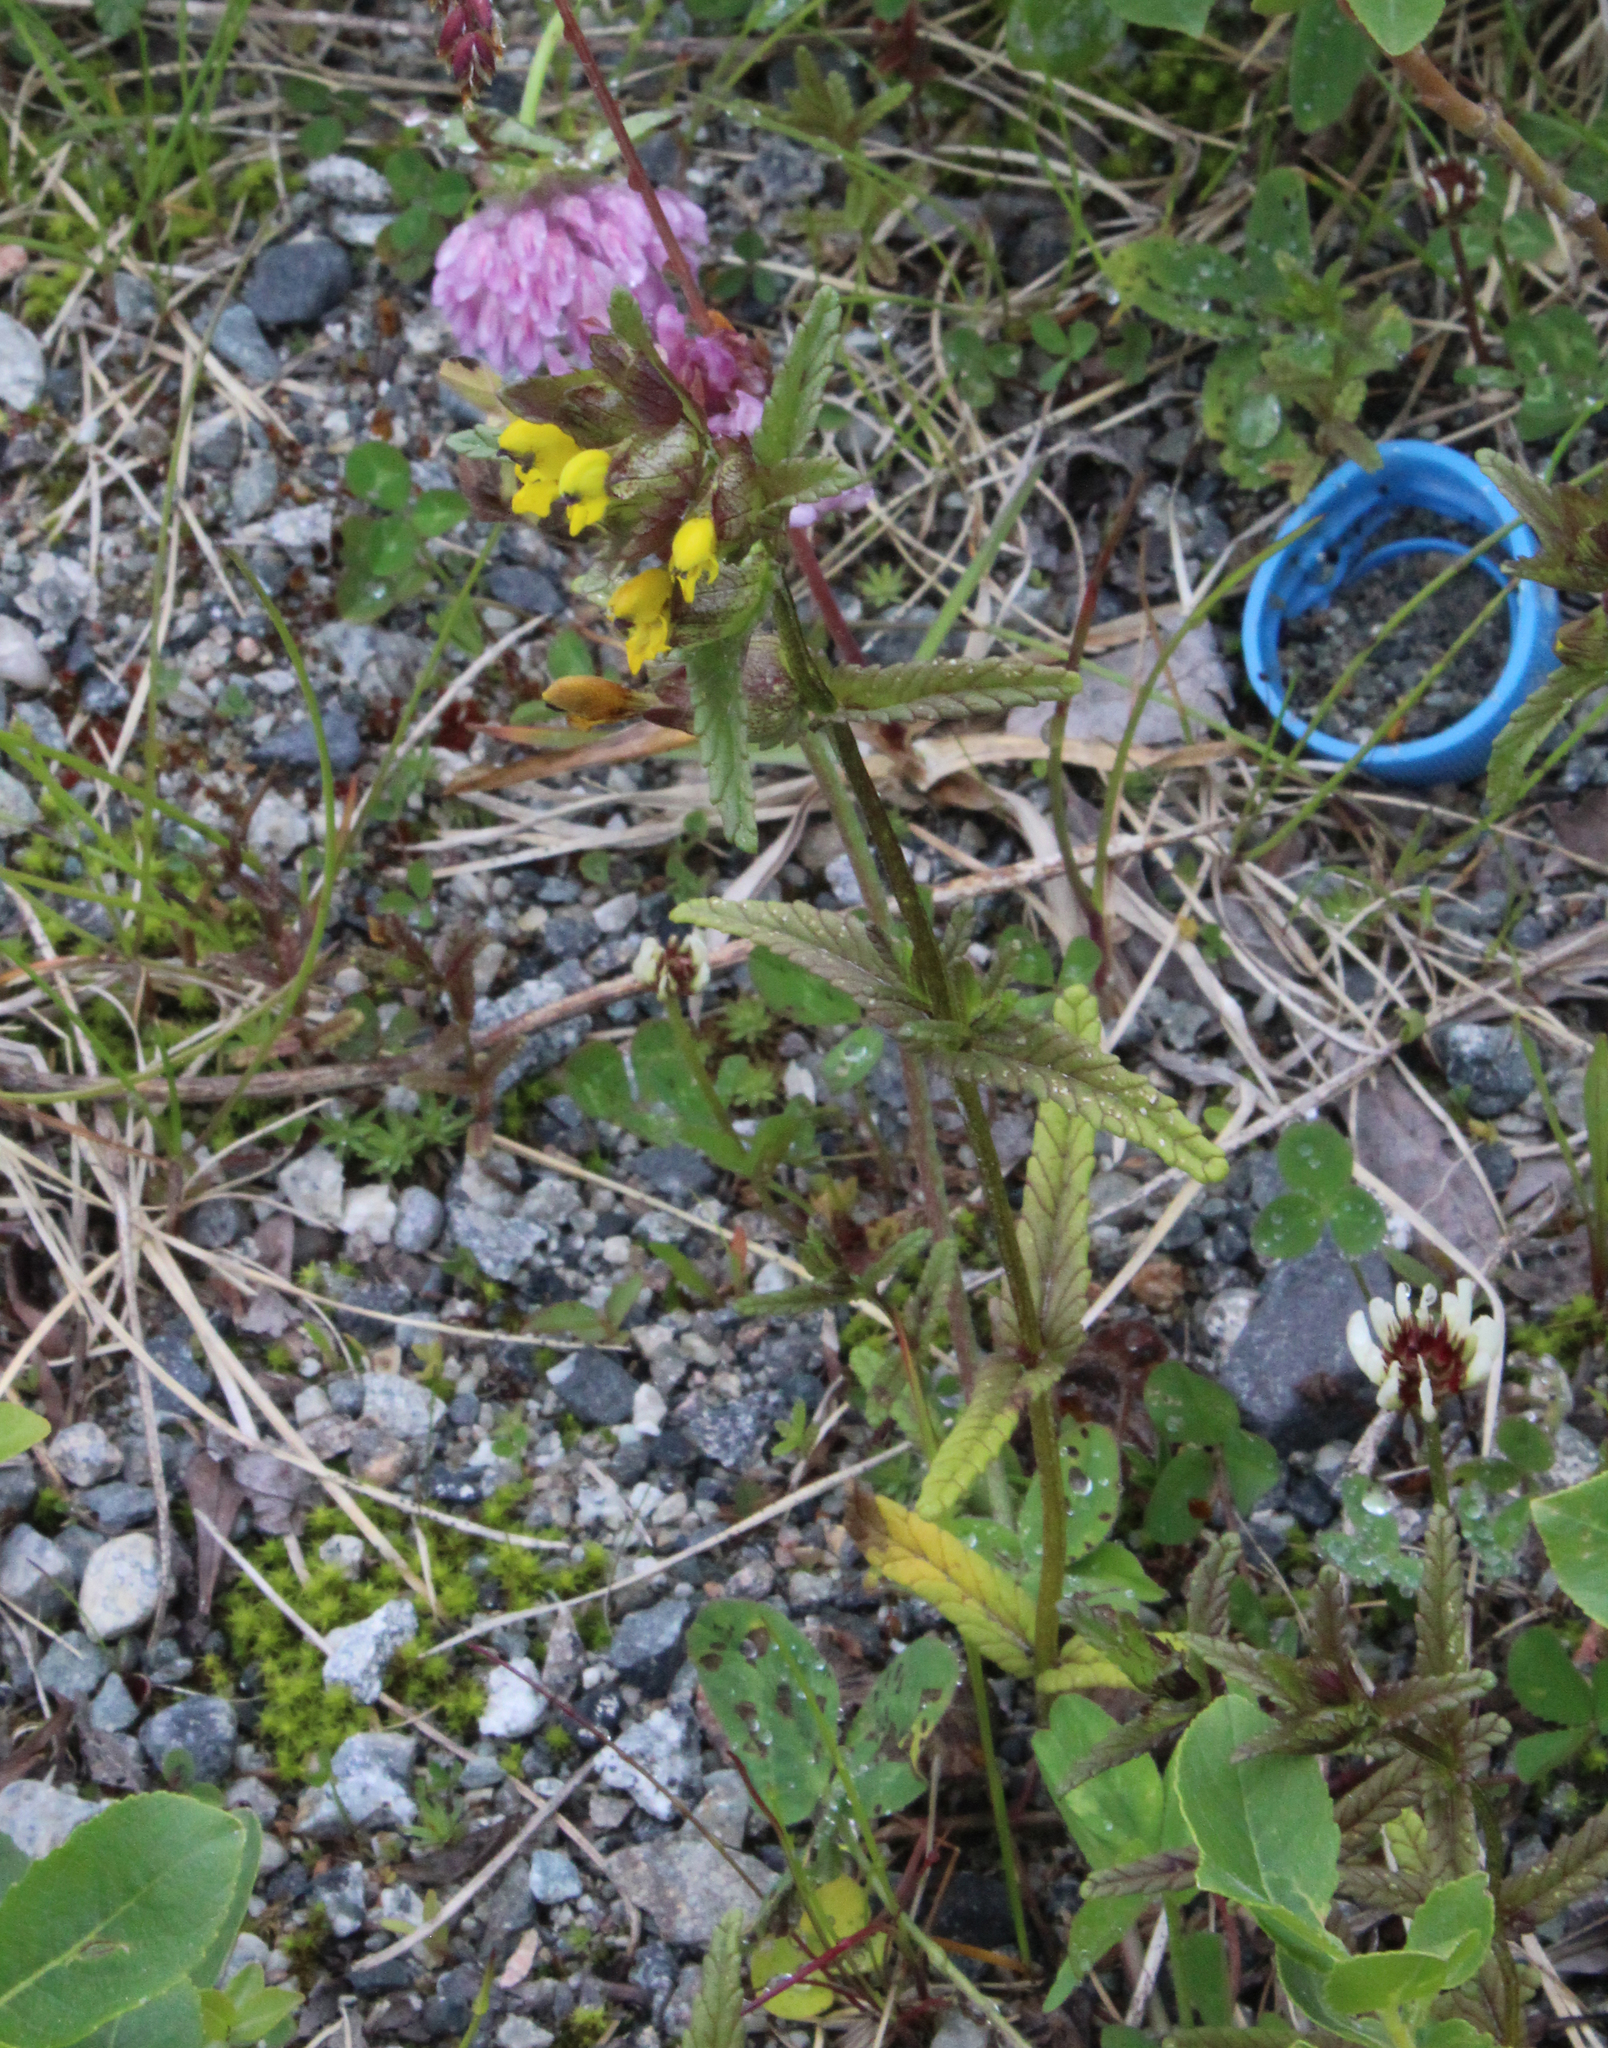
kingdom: Plantae
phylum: Tracheophyta
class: Magnoliopsida
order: Lamiales
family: Orobanchaceae
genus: Rhinanthus
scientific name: Rhinanthus minor
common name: Yellow-rattle
